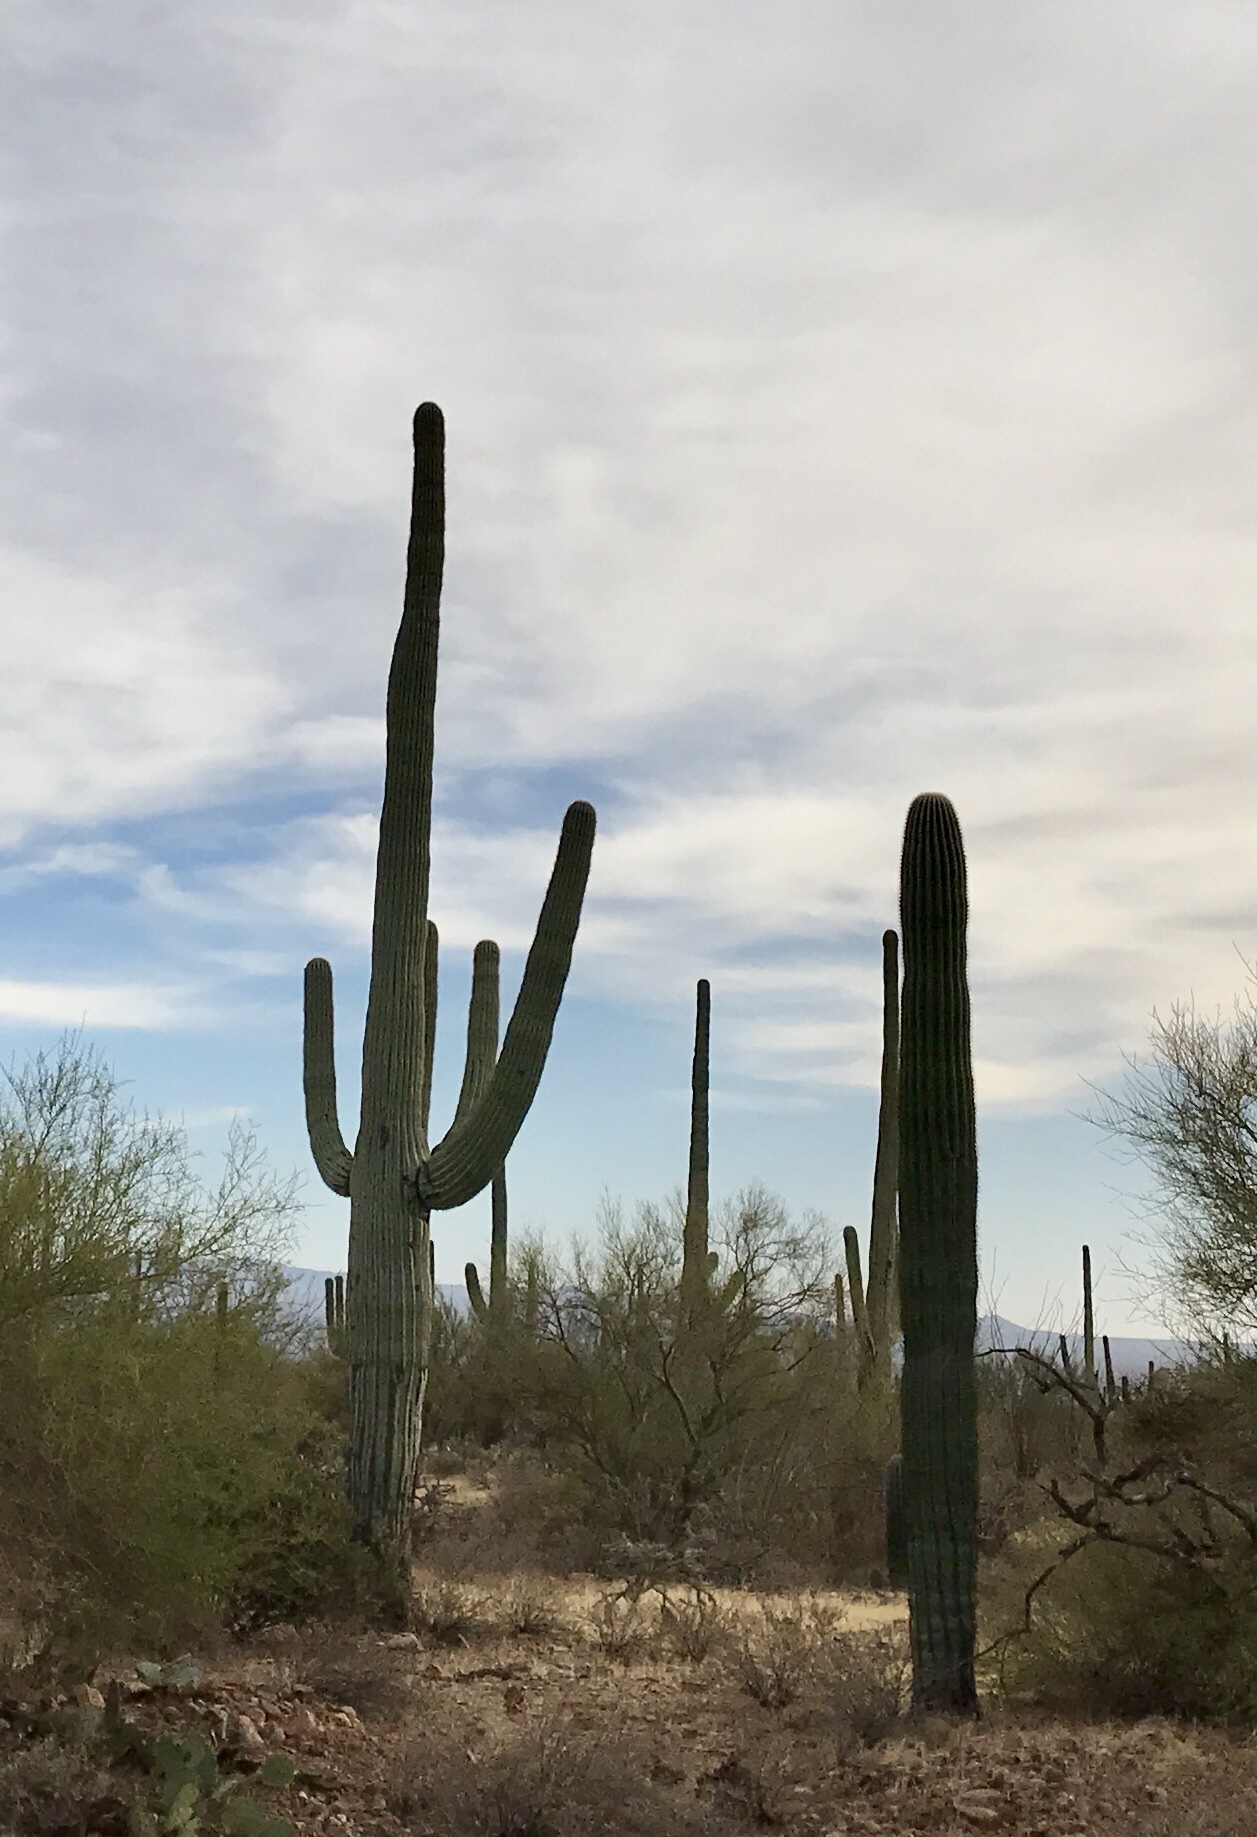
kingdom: Plantae
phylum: Tracheophyta
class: Magnoliopsida
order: Caryophyllales
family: Cactaceae
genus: Carnegiea
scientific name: Carnegiea gigantea
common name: Saguaro
